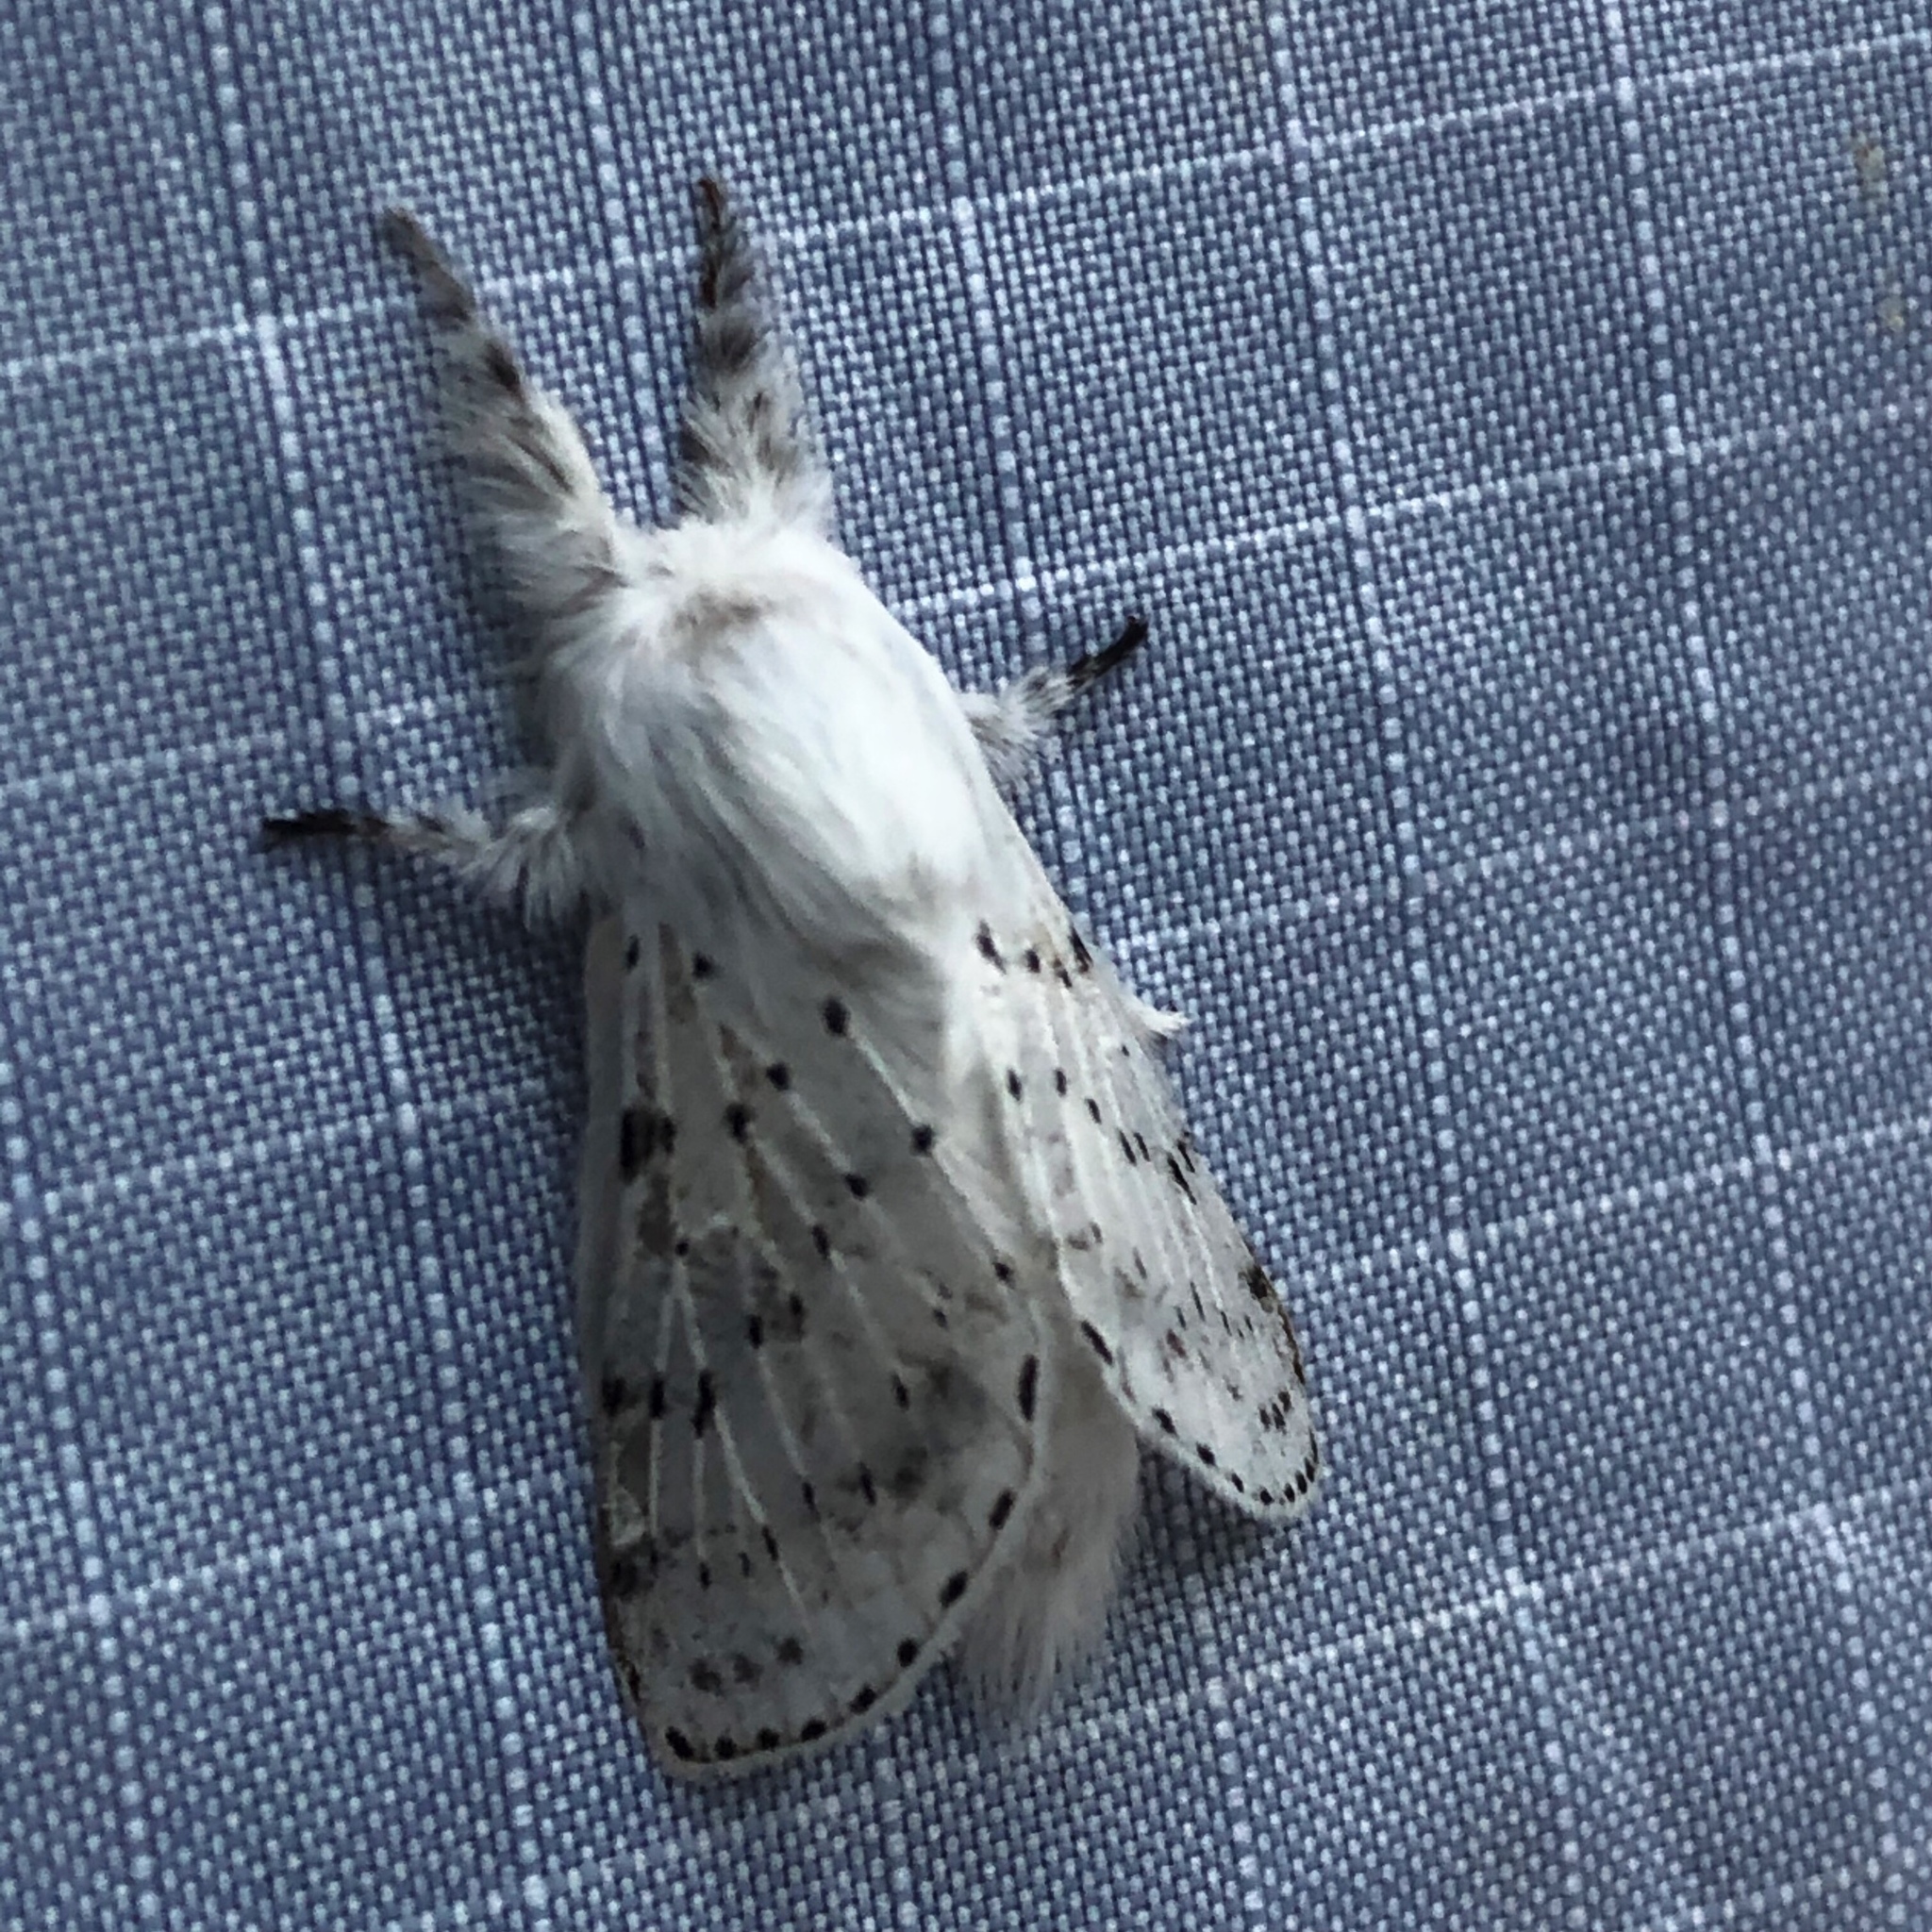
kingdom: Animalia
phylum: Arthropoda
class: Insecta
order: Lepidoptera
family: Lasiocampidae
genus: Artace
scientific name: Artace cribrarius
